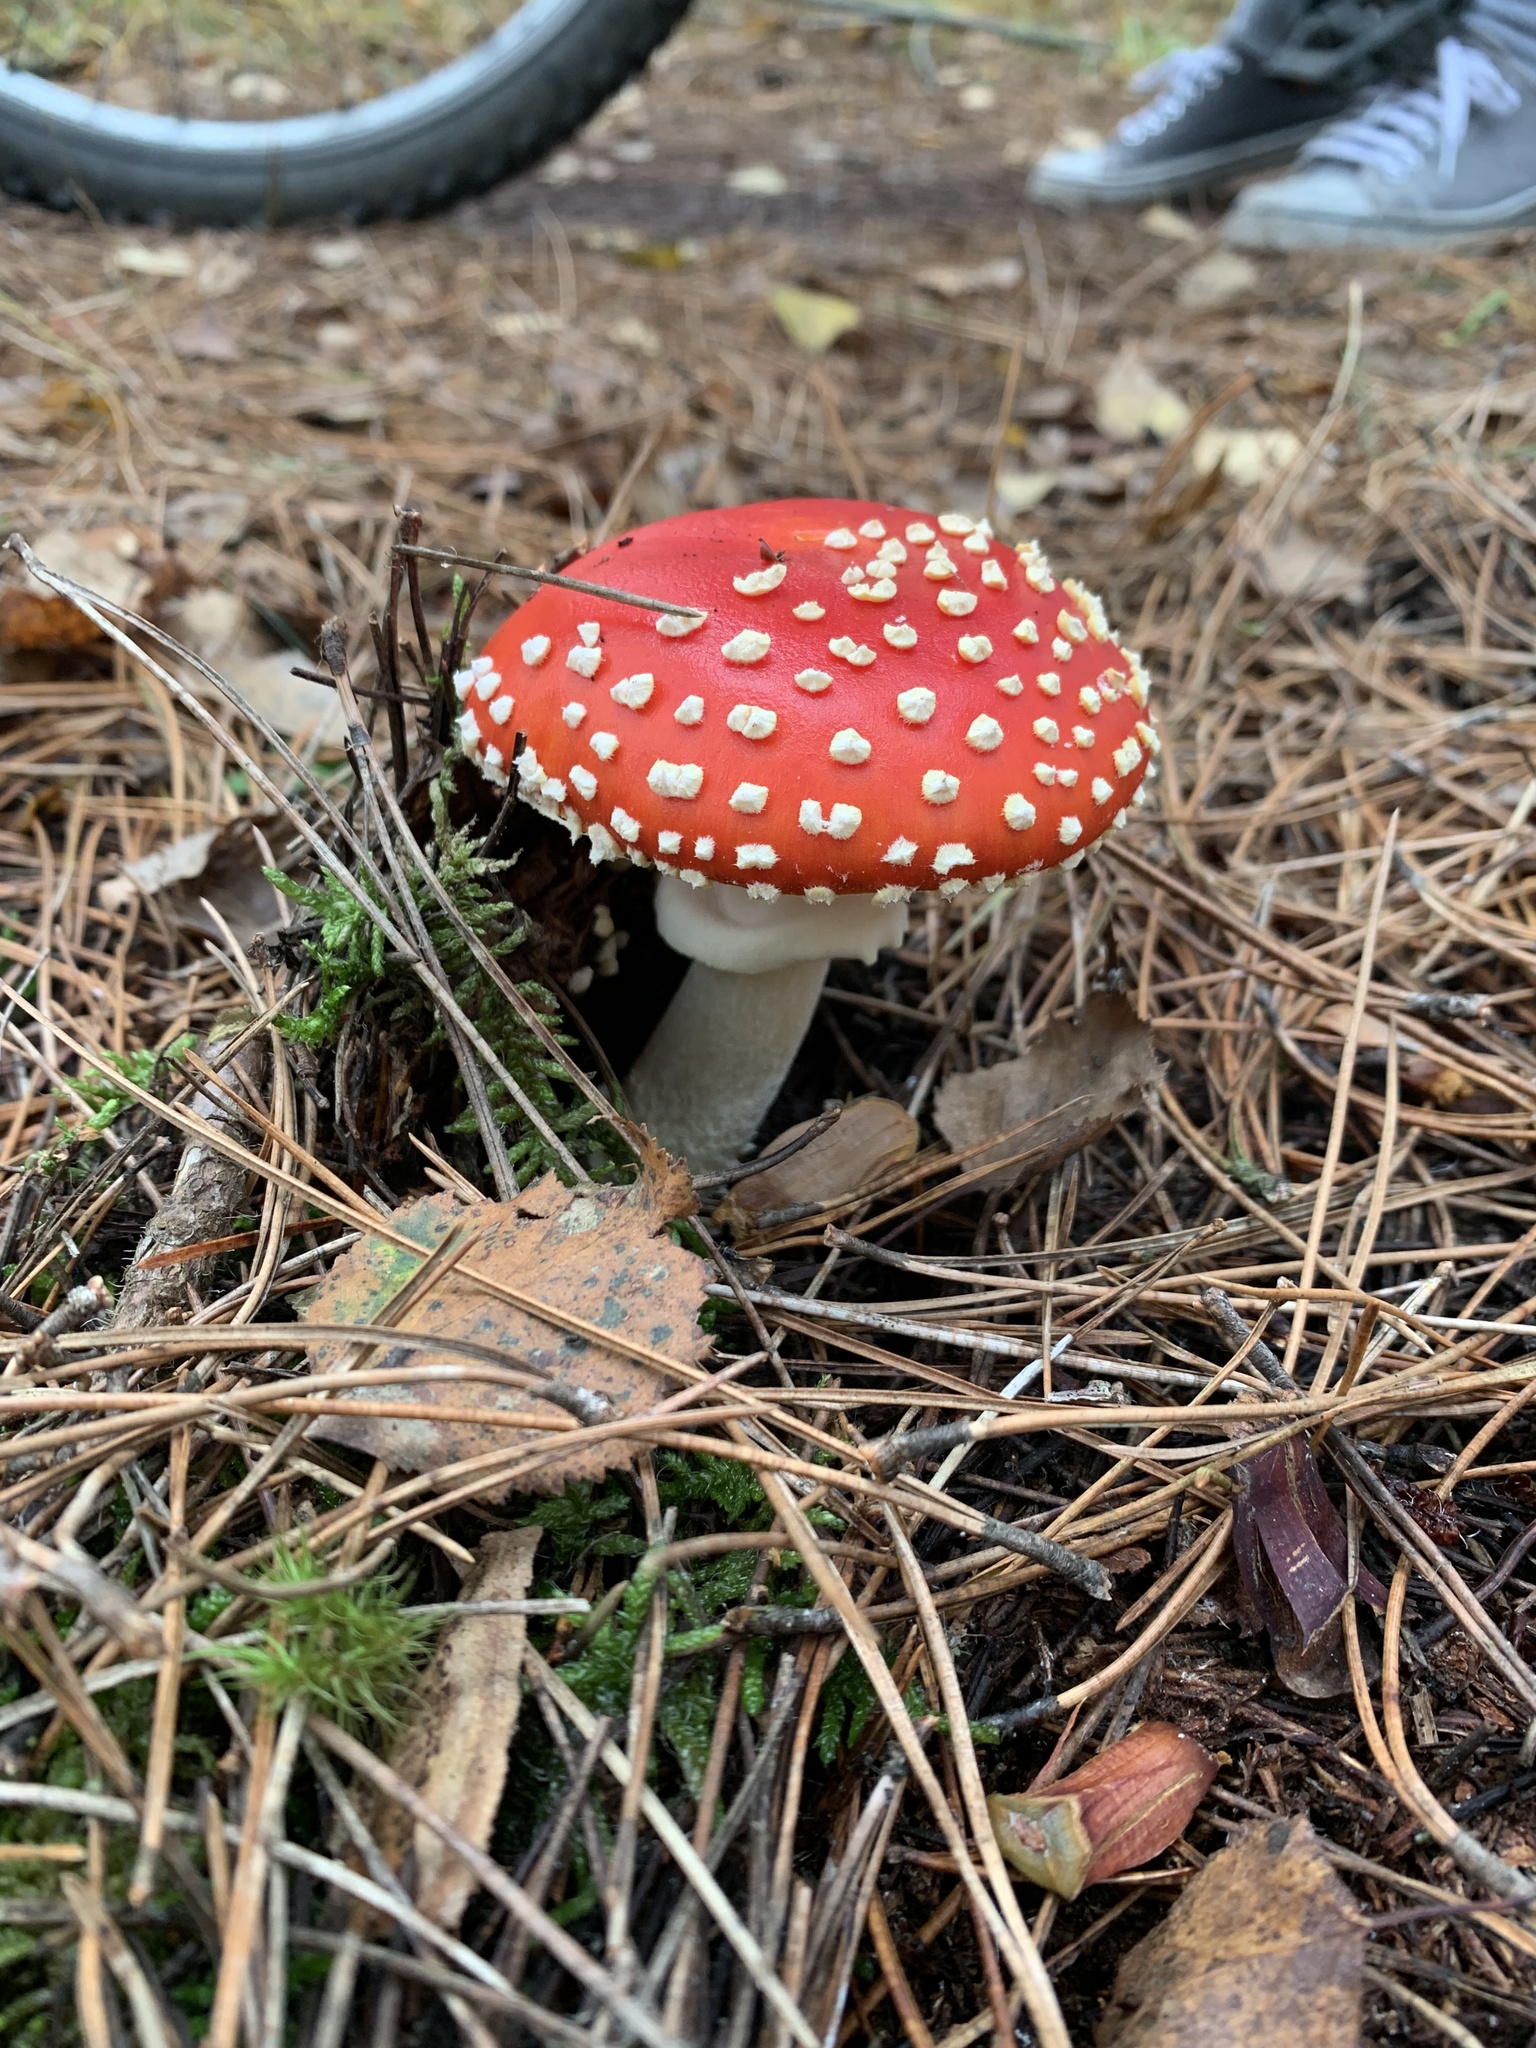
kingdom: Fungi
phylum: Basidiomycota
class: Agaricomycetes
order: Agaricales
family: Amanitaceae
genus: Amanita
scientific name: Amanita muscaria
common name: Fly agaric
